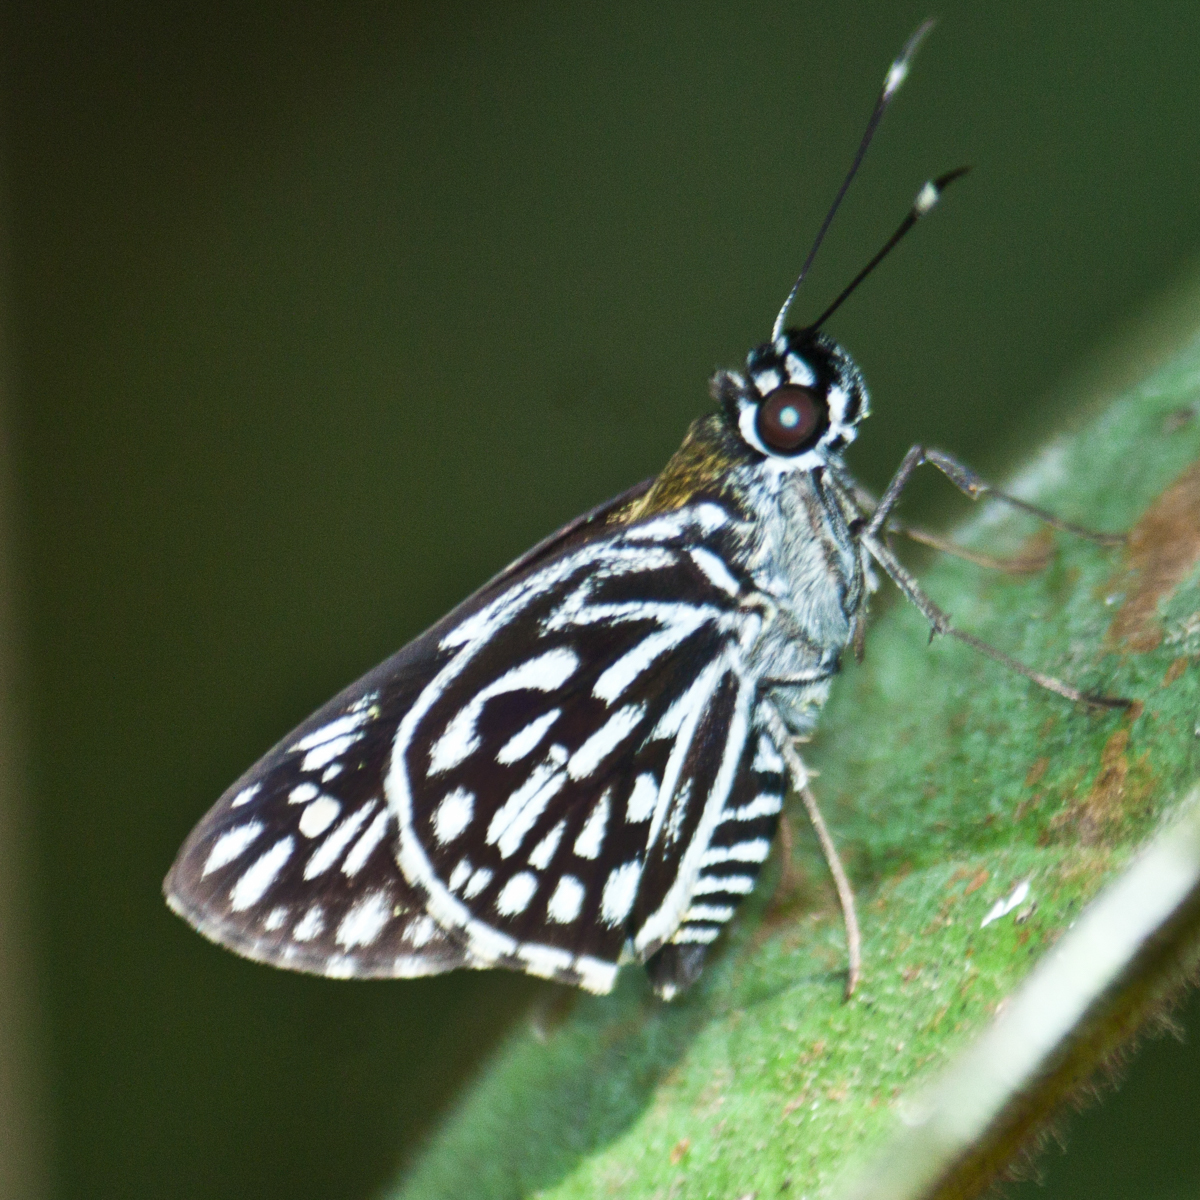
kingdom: Animalia
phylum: Arthropoda
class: Insecta
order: Lepidoptera
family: Hesperiidae
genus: Plastingia
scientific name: Plastingia naga
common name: Chequered lancer
